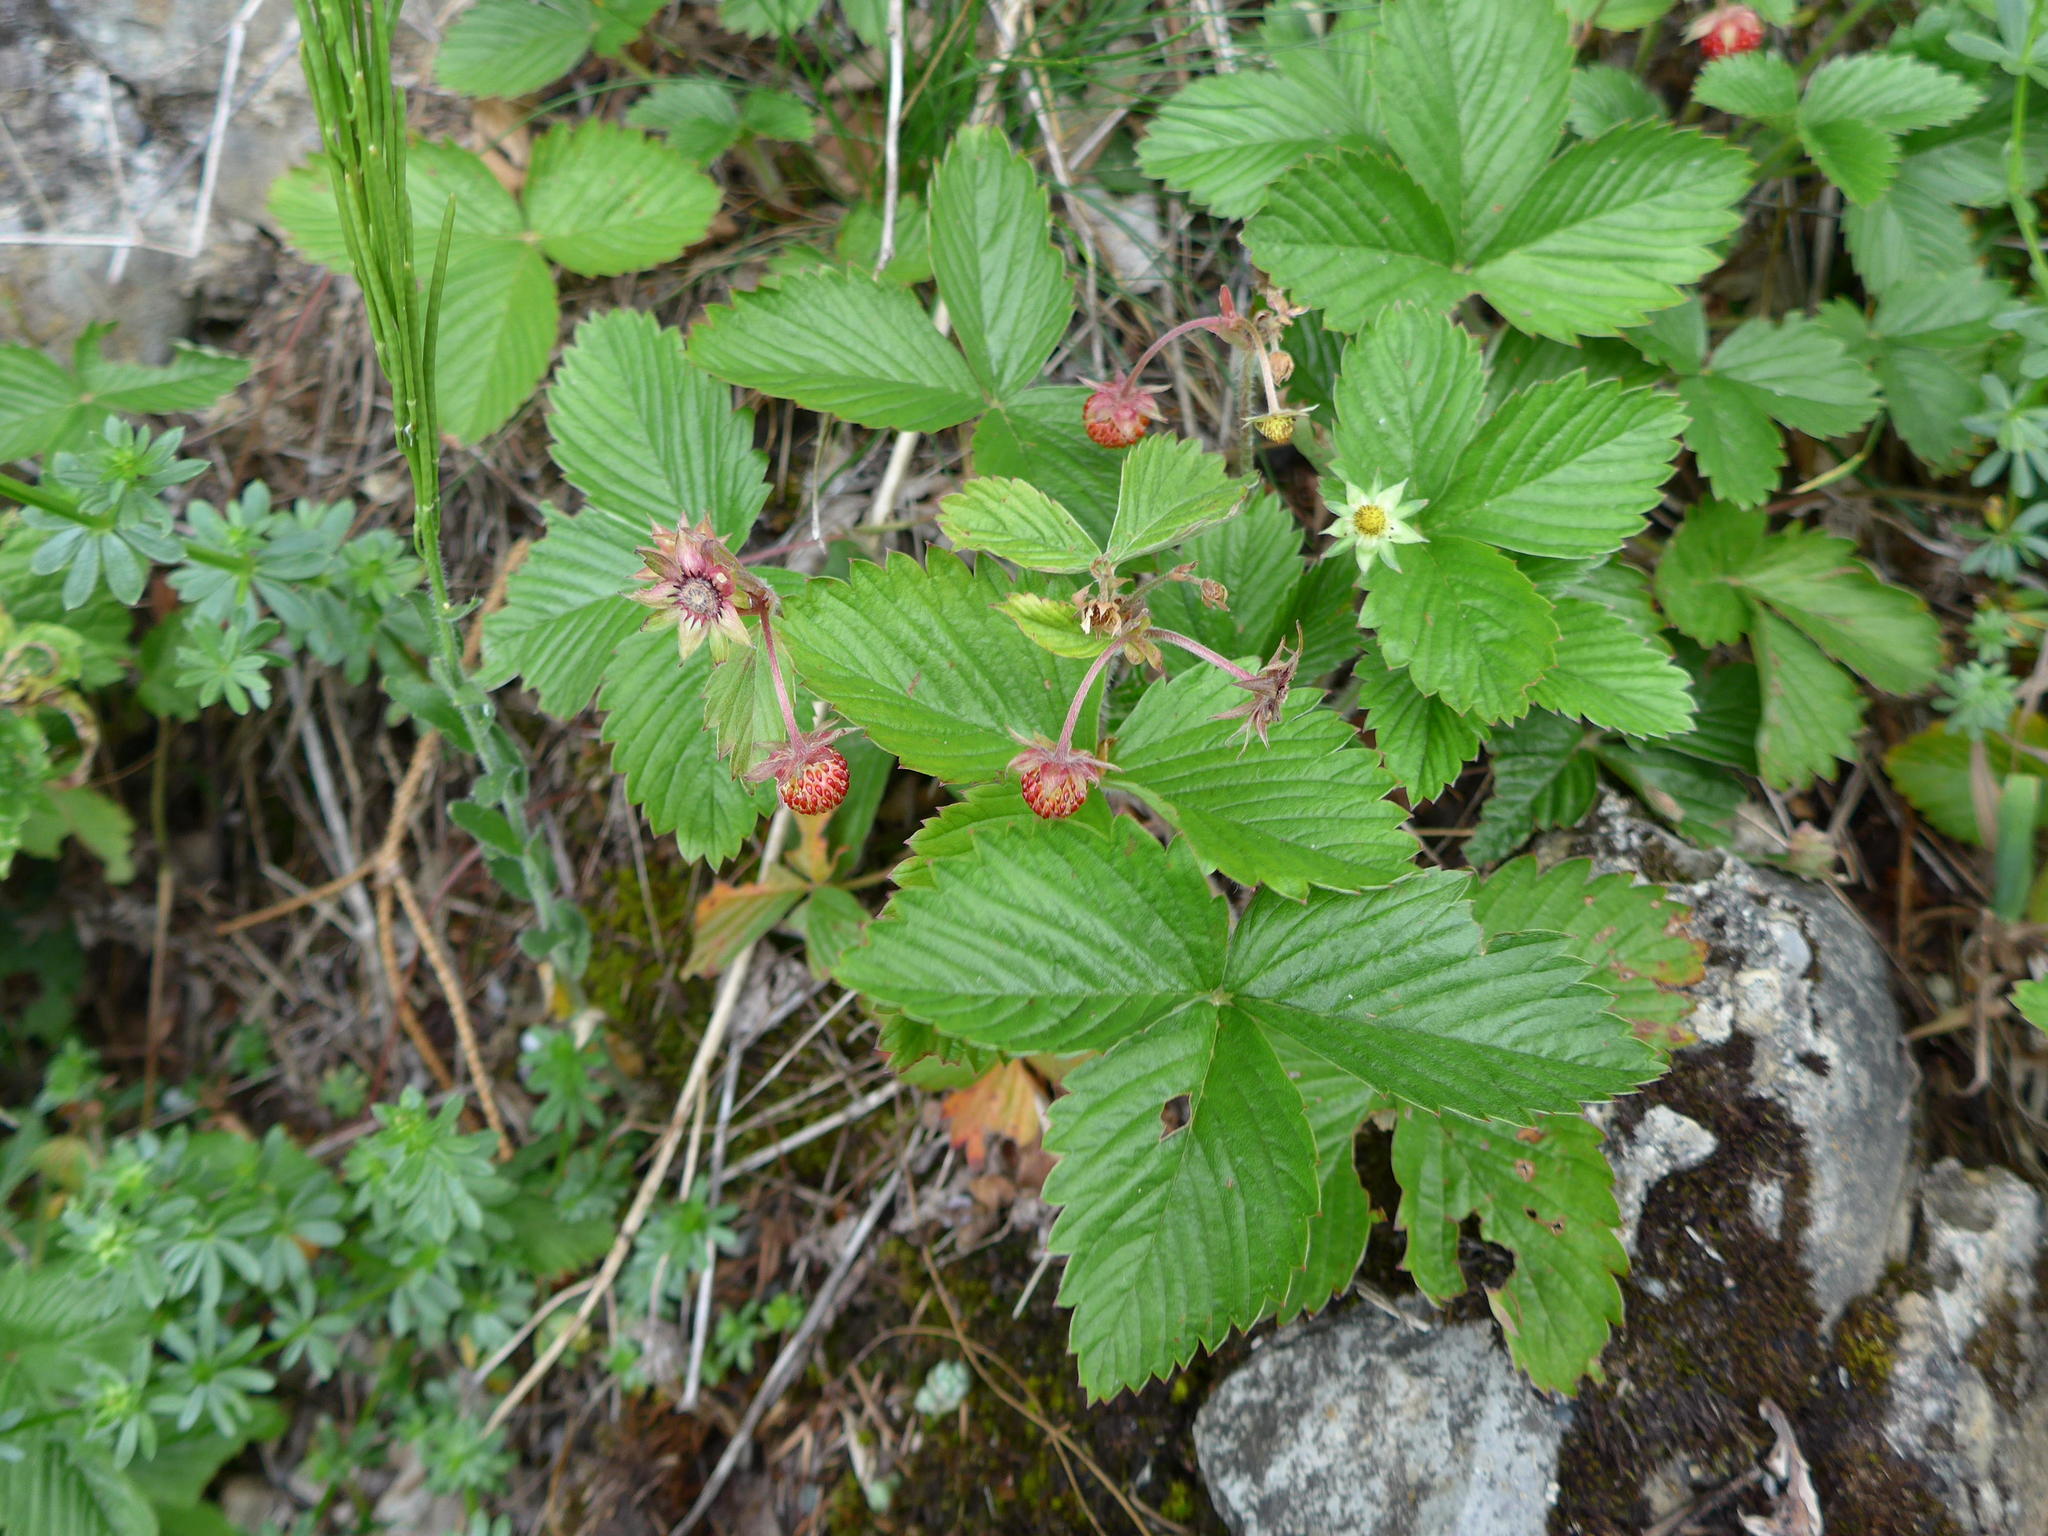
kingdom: Plantae
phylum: Tracheophyta
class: Magnoliopsida
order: Rosales
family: Rosaceae
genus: Fragaria
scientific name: Fragaria vesca
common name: Wild strawberry
